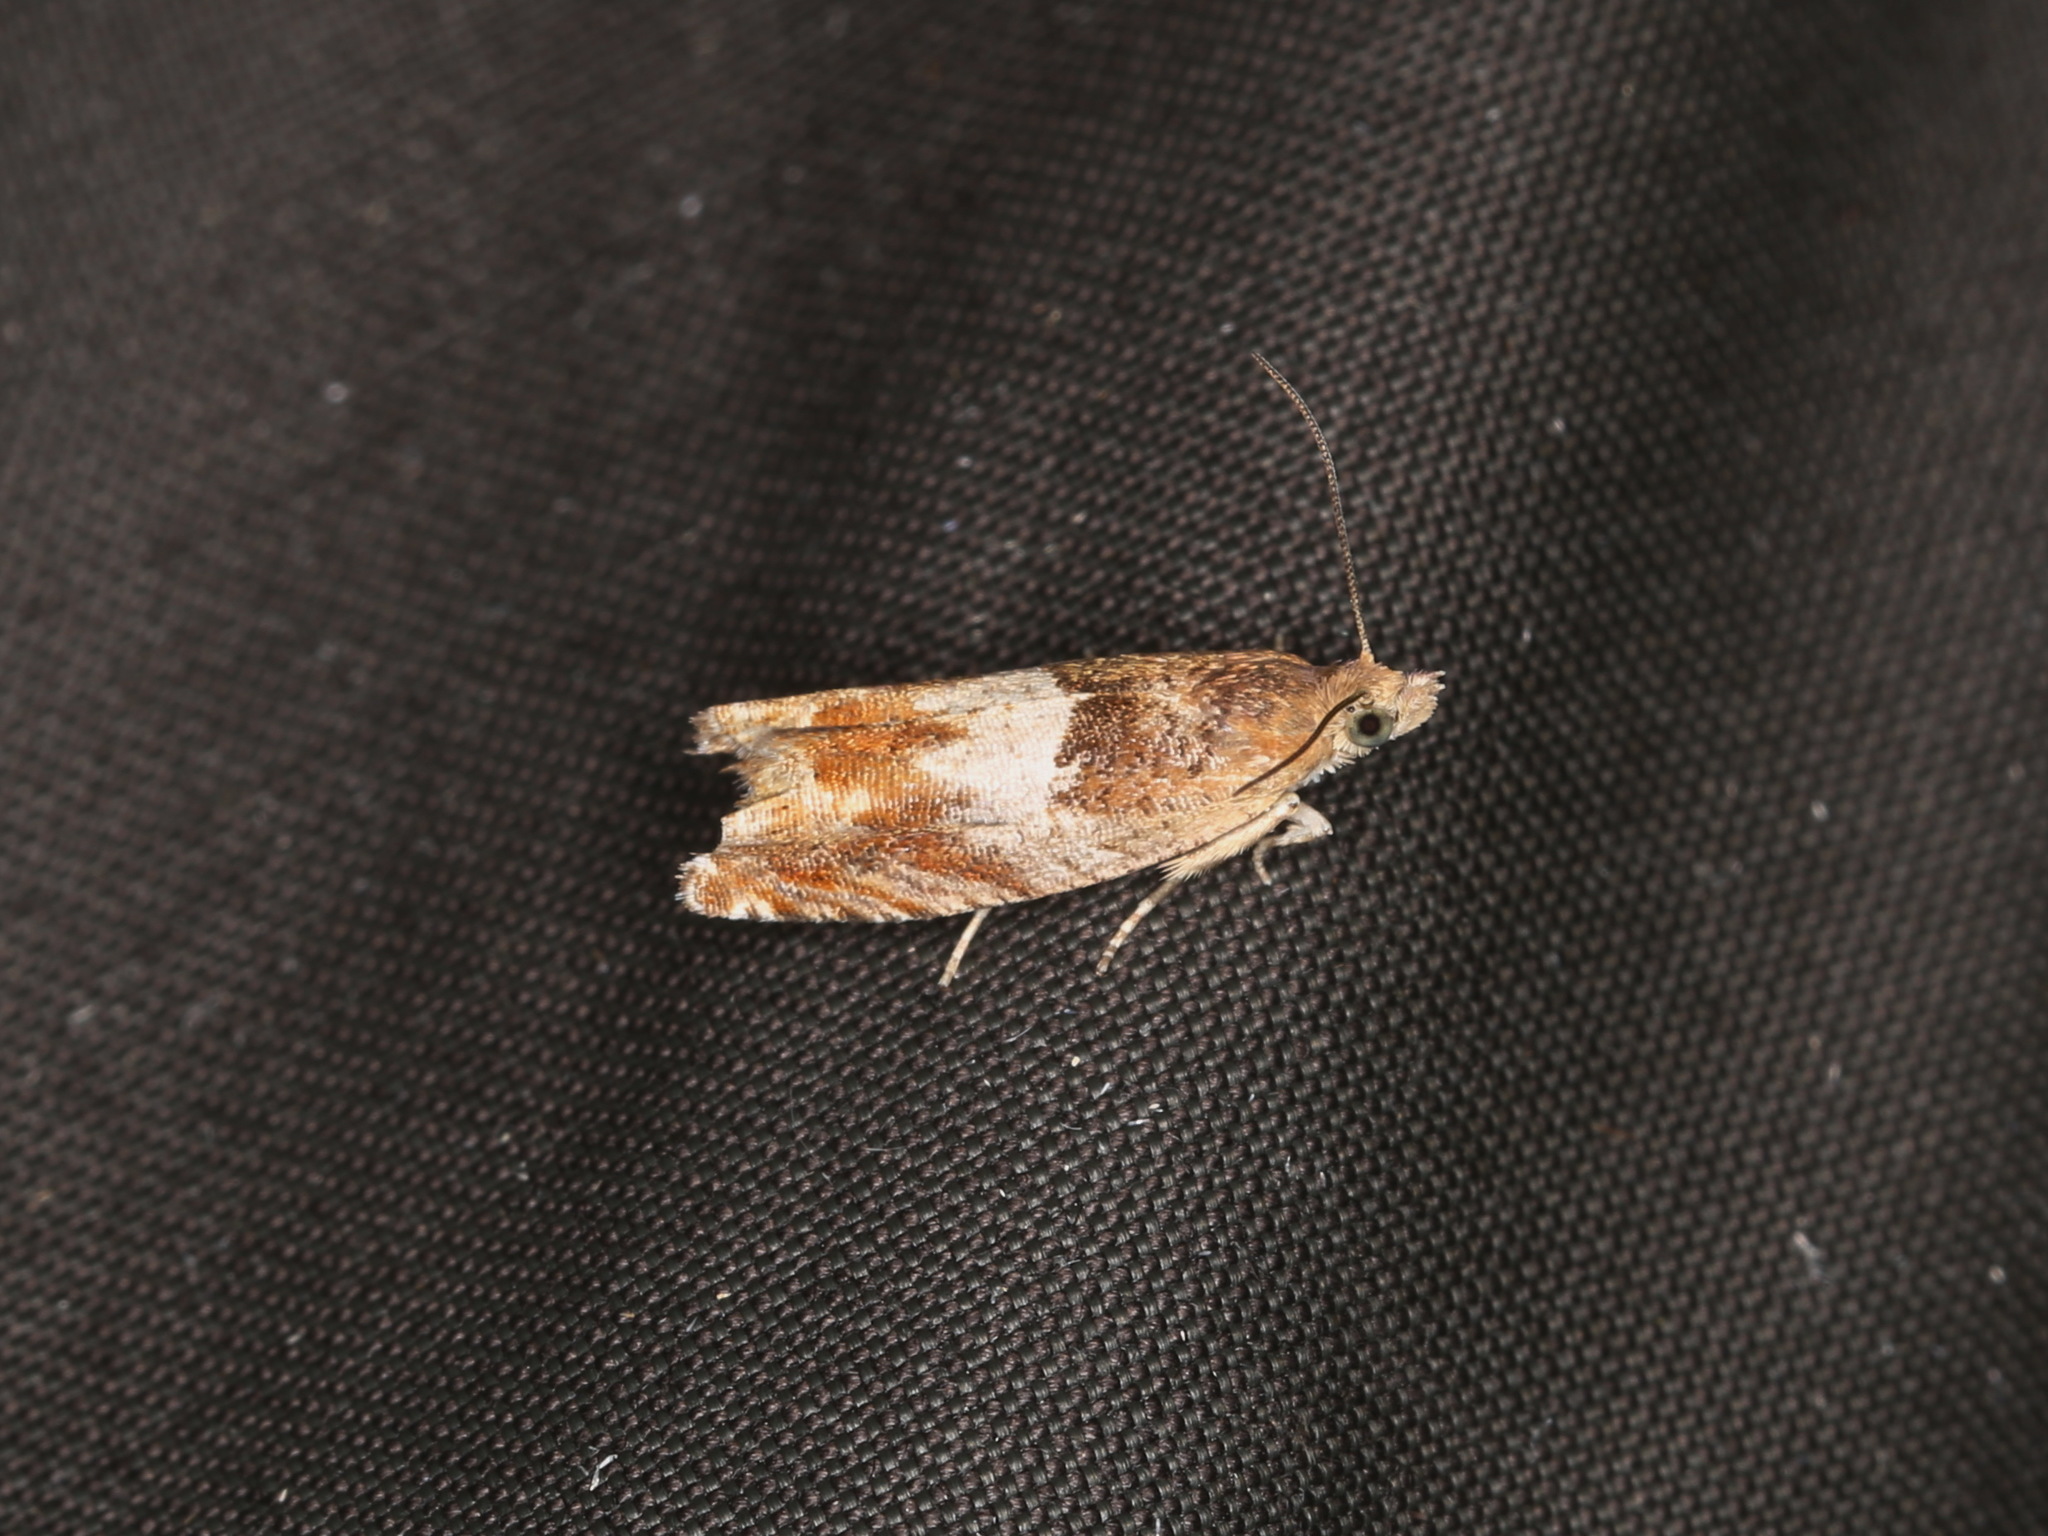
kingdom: Animalia
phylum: Arthropoda
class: Insecta
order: Lepidoptera
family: Tortricidae
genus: Epinotia
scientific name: Epinotia tenerana
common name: Nut bud moth
